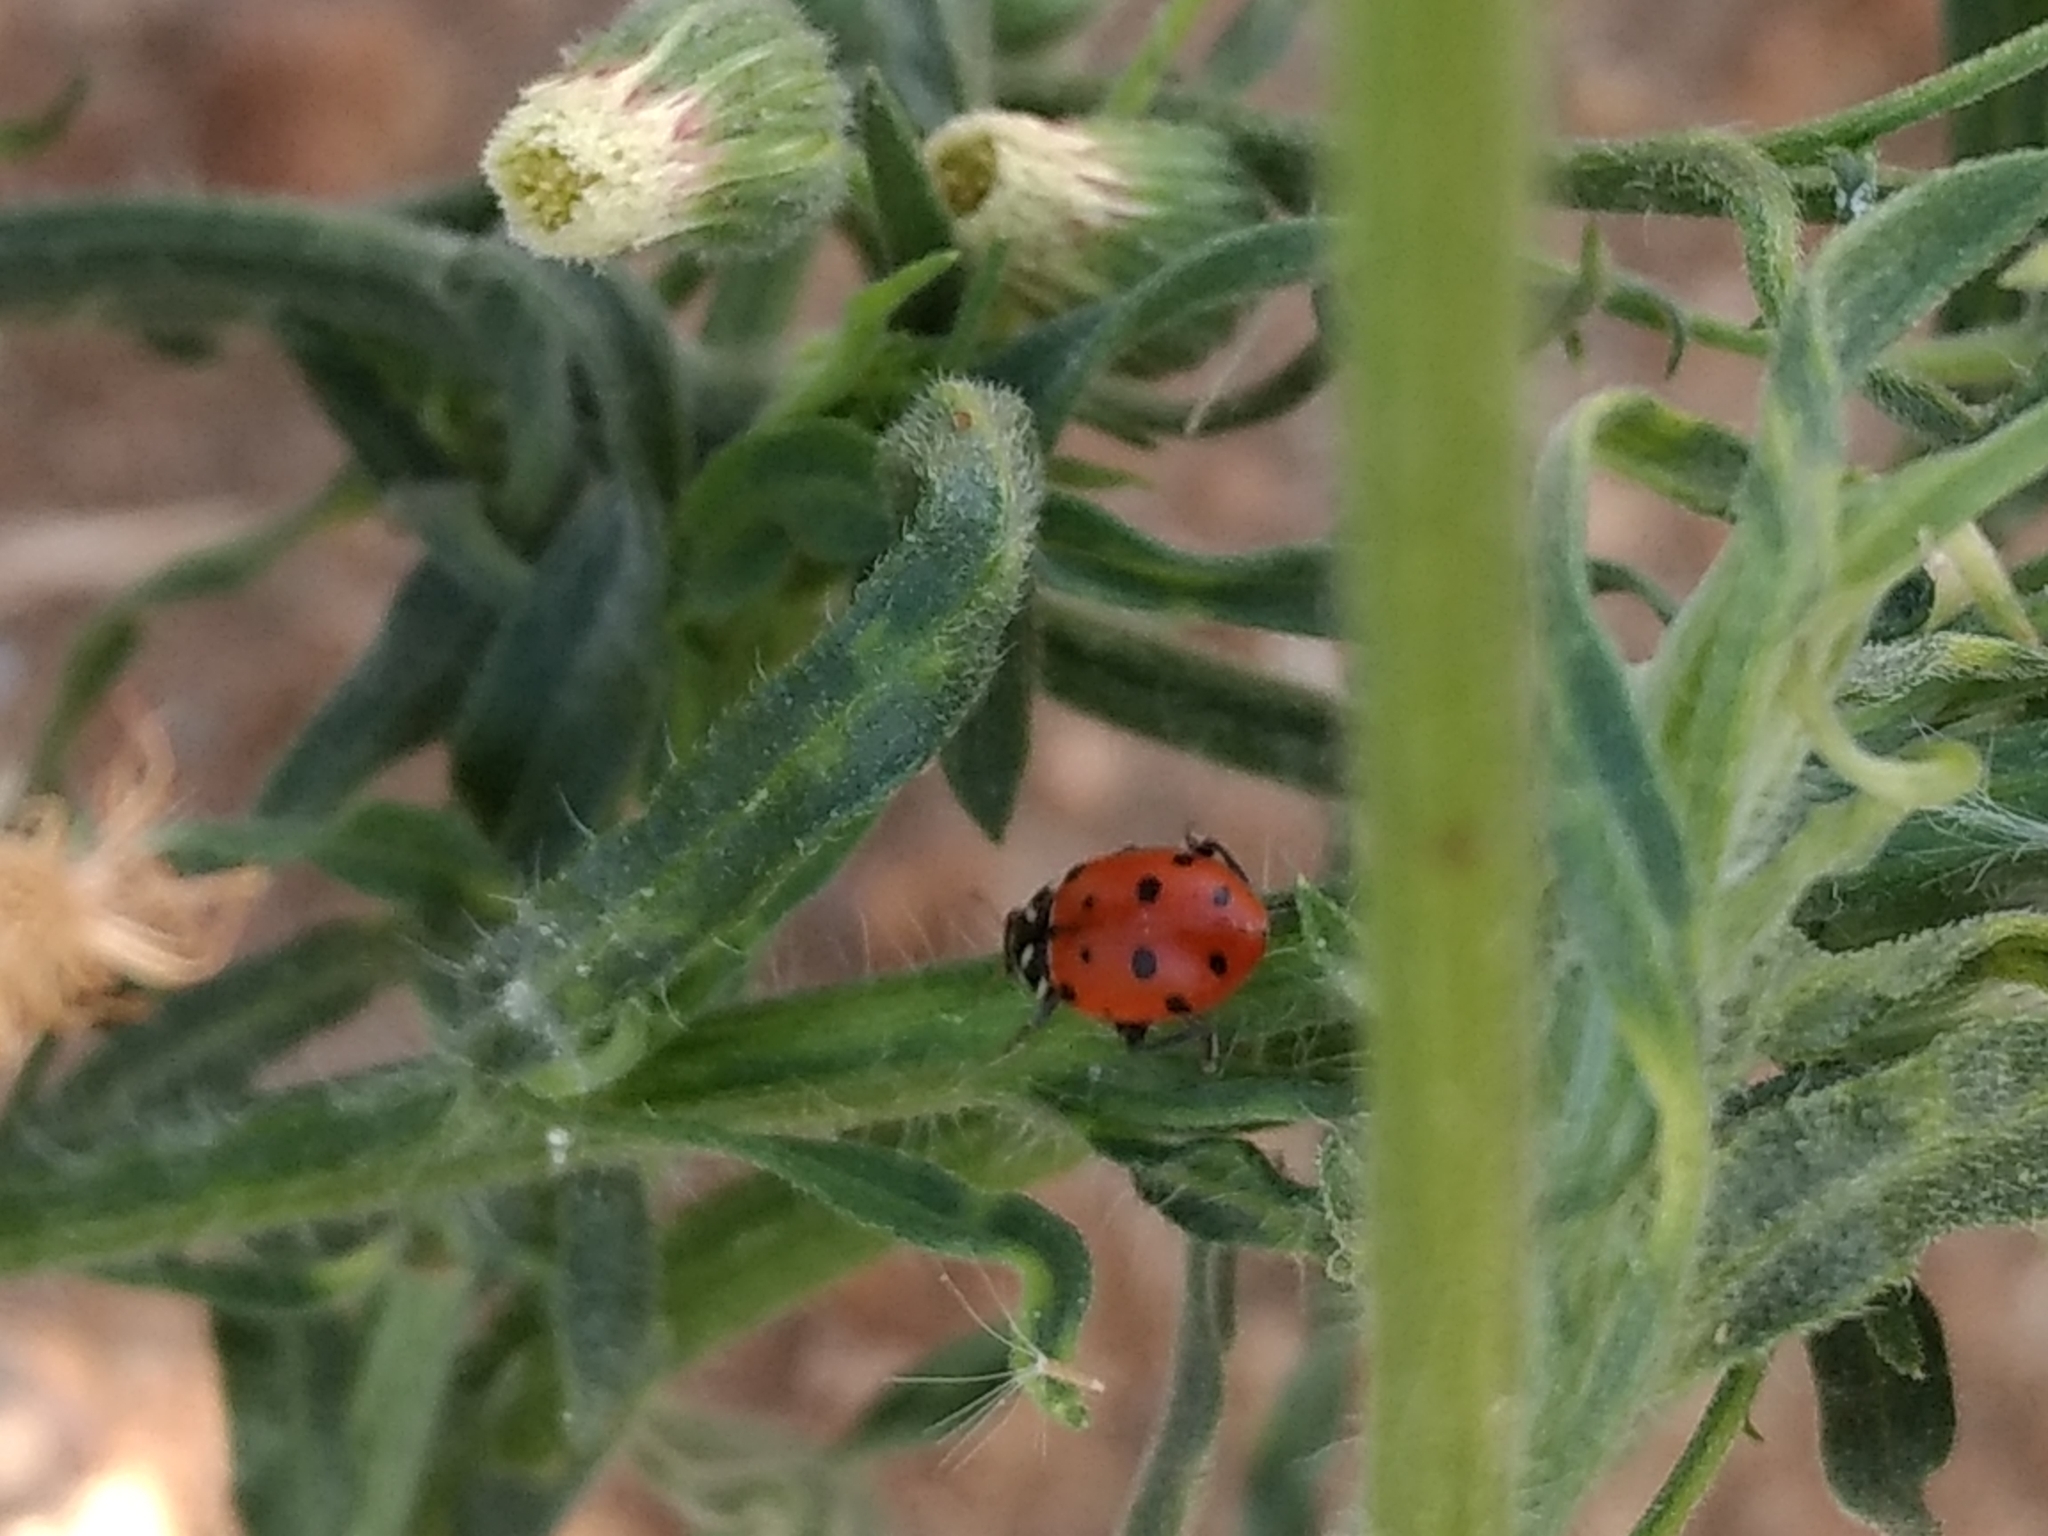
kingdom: Animalia
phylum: Arthropoda
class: Insecta
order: Coleoptera
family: Coccinellidae
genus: Hippodamia
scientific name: Hippodamia convergens
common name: Convergent lady beetle
